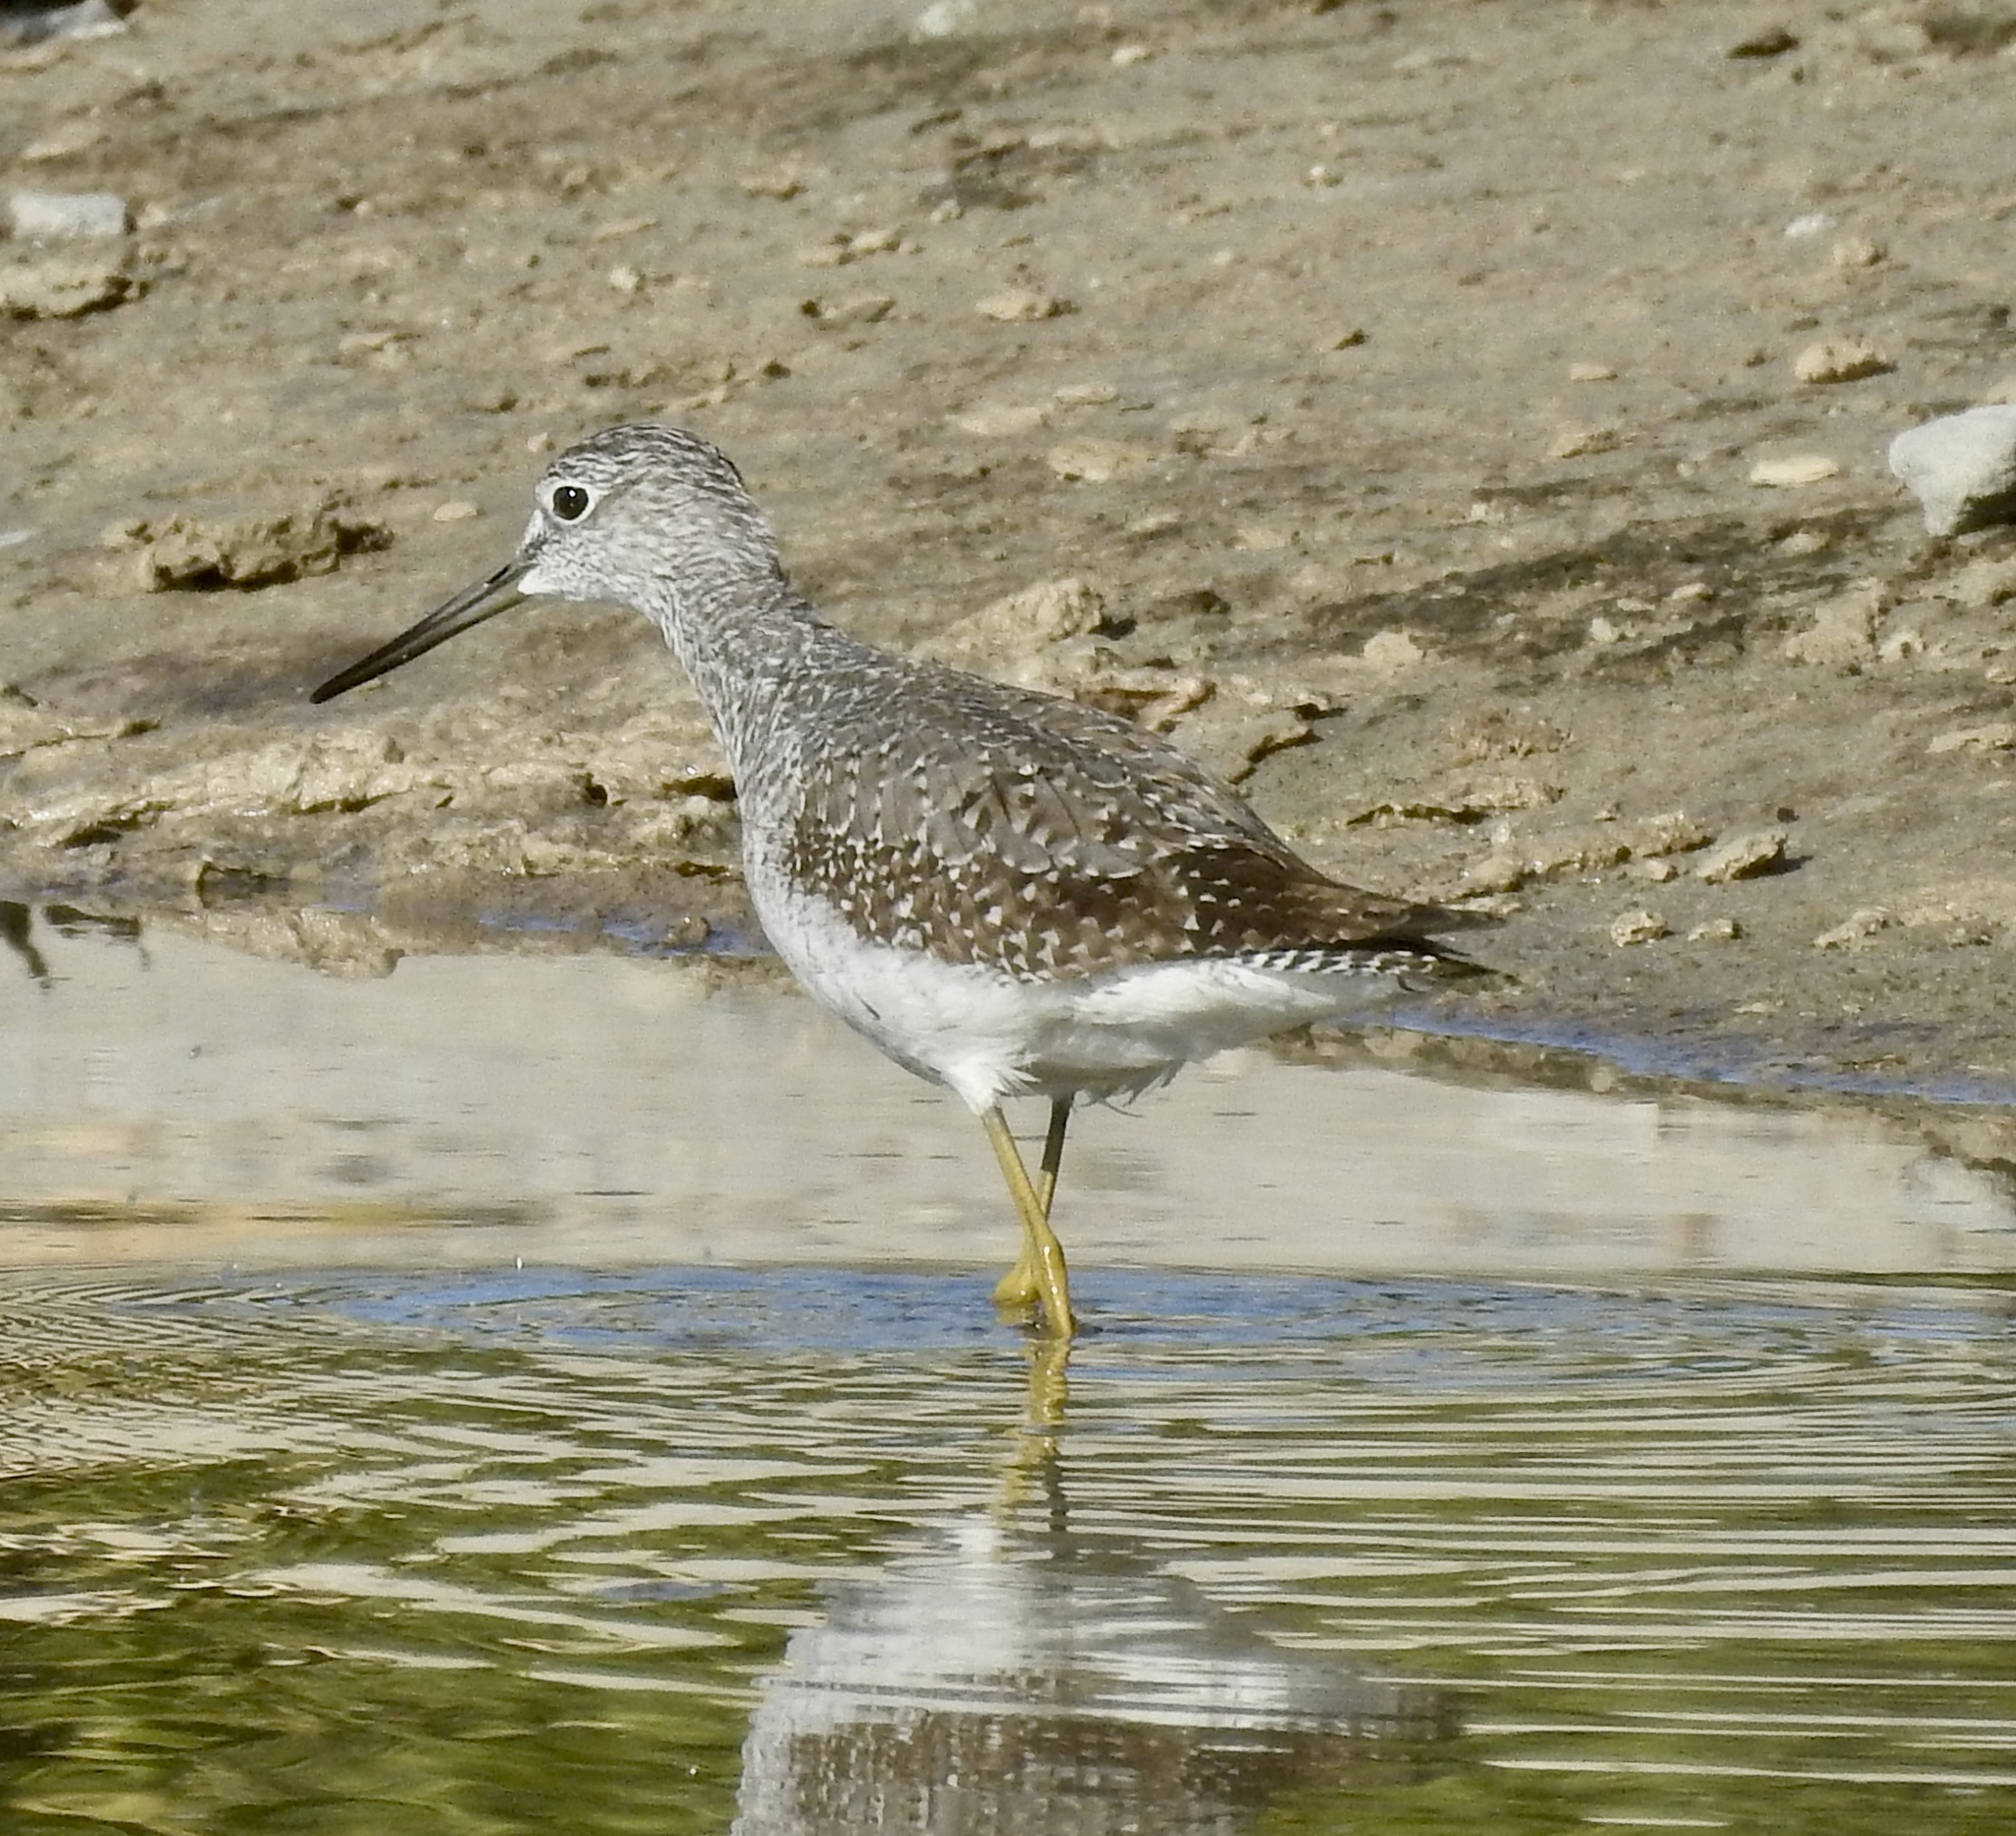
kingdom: Animalia
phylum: Chordata
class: Aves
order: Charadriiformes
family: Scolopacidae
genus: Tringa
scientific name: Tringa melanoleuca
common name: Greater yellowlegs
